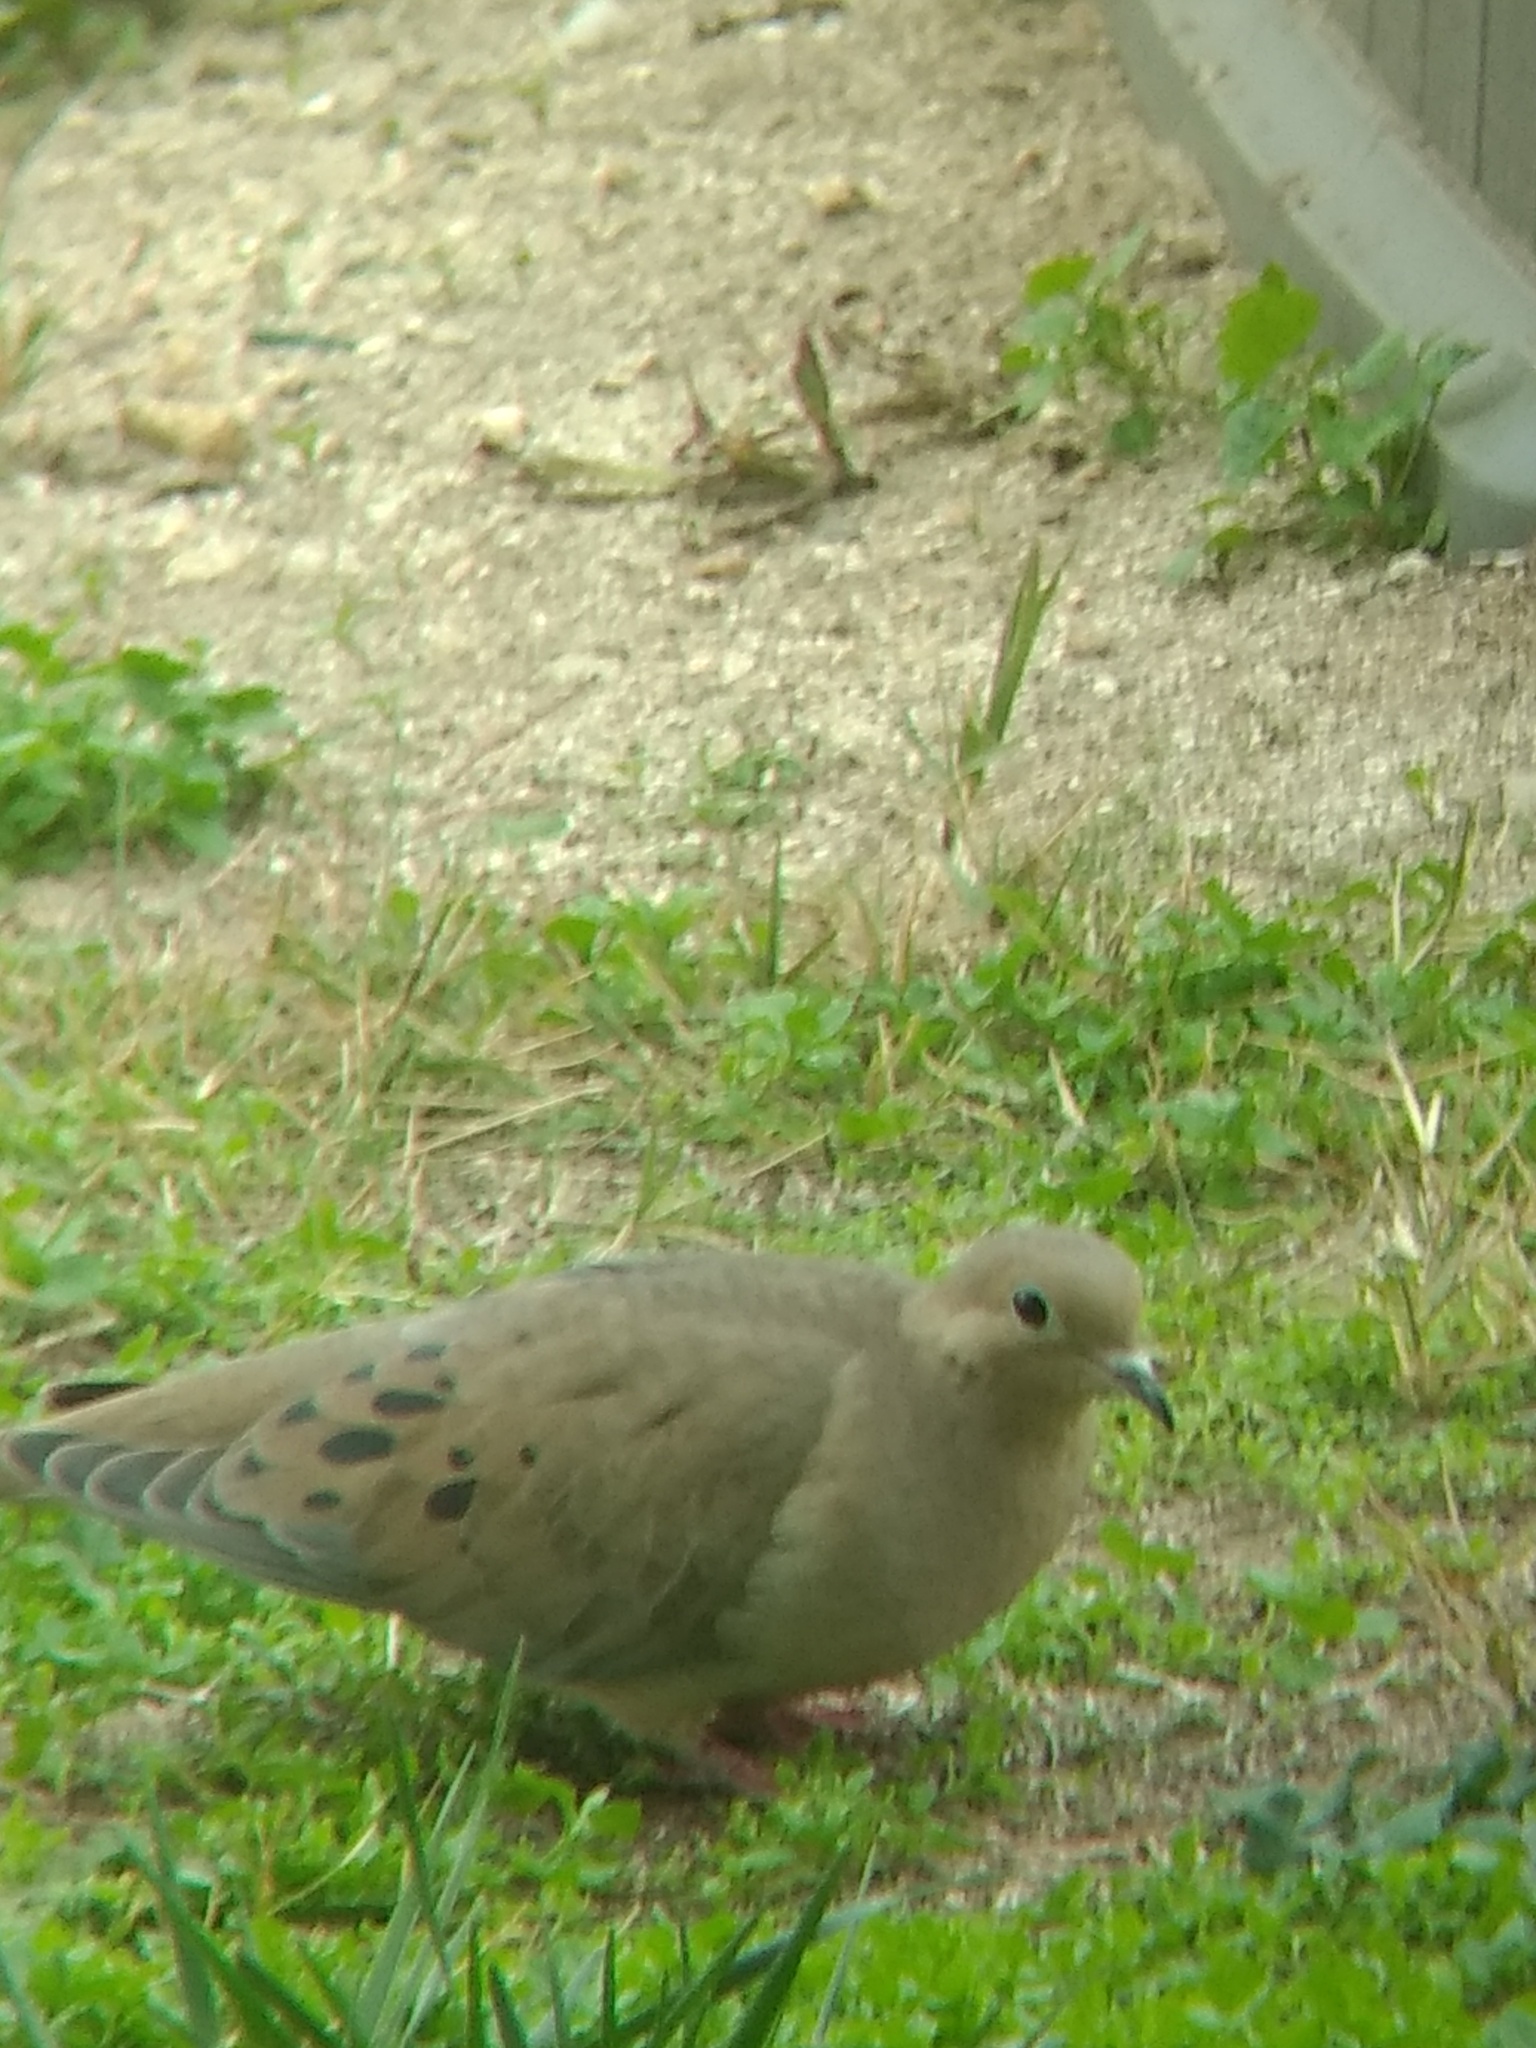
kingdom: Animalia
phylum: Chordata
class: Aves
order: Columbiformes
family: Columbidae
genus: Zenaida
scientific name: Zenaida macroura
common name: Mourning dove
